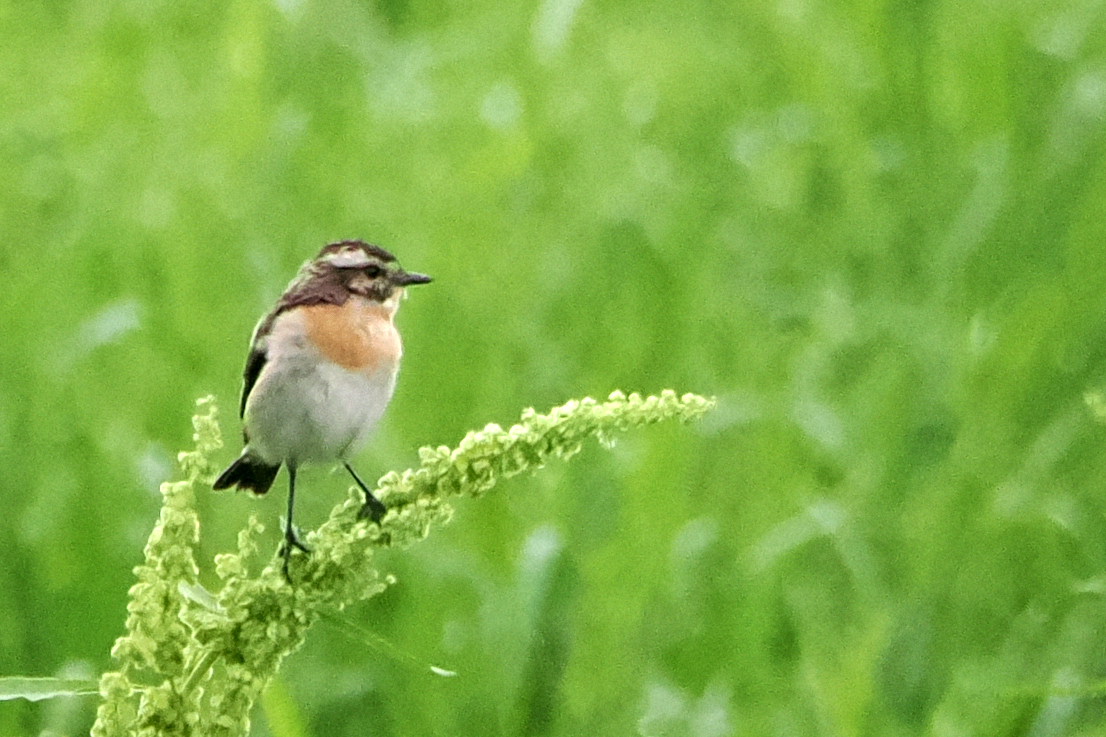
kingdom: Animalia
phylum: Chordata
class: Aves
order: Passeriformes
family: Muscicapidae
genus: Saxicola
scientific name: Saxicola rubetra
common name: Whinchat
